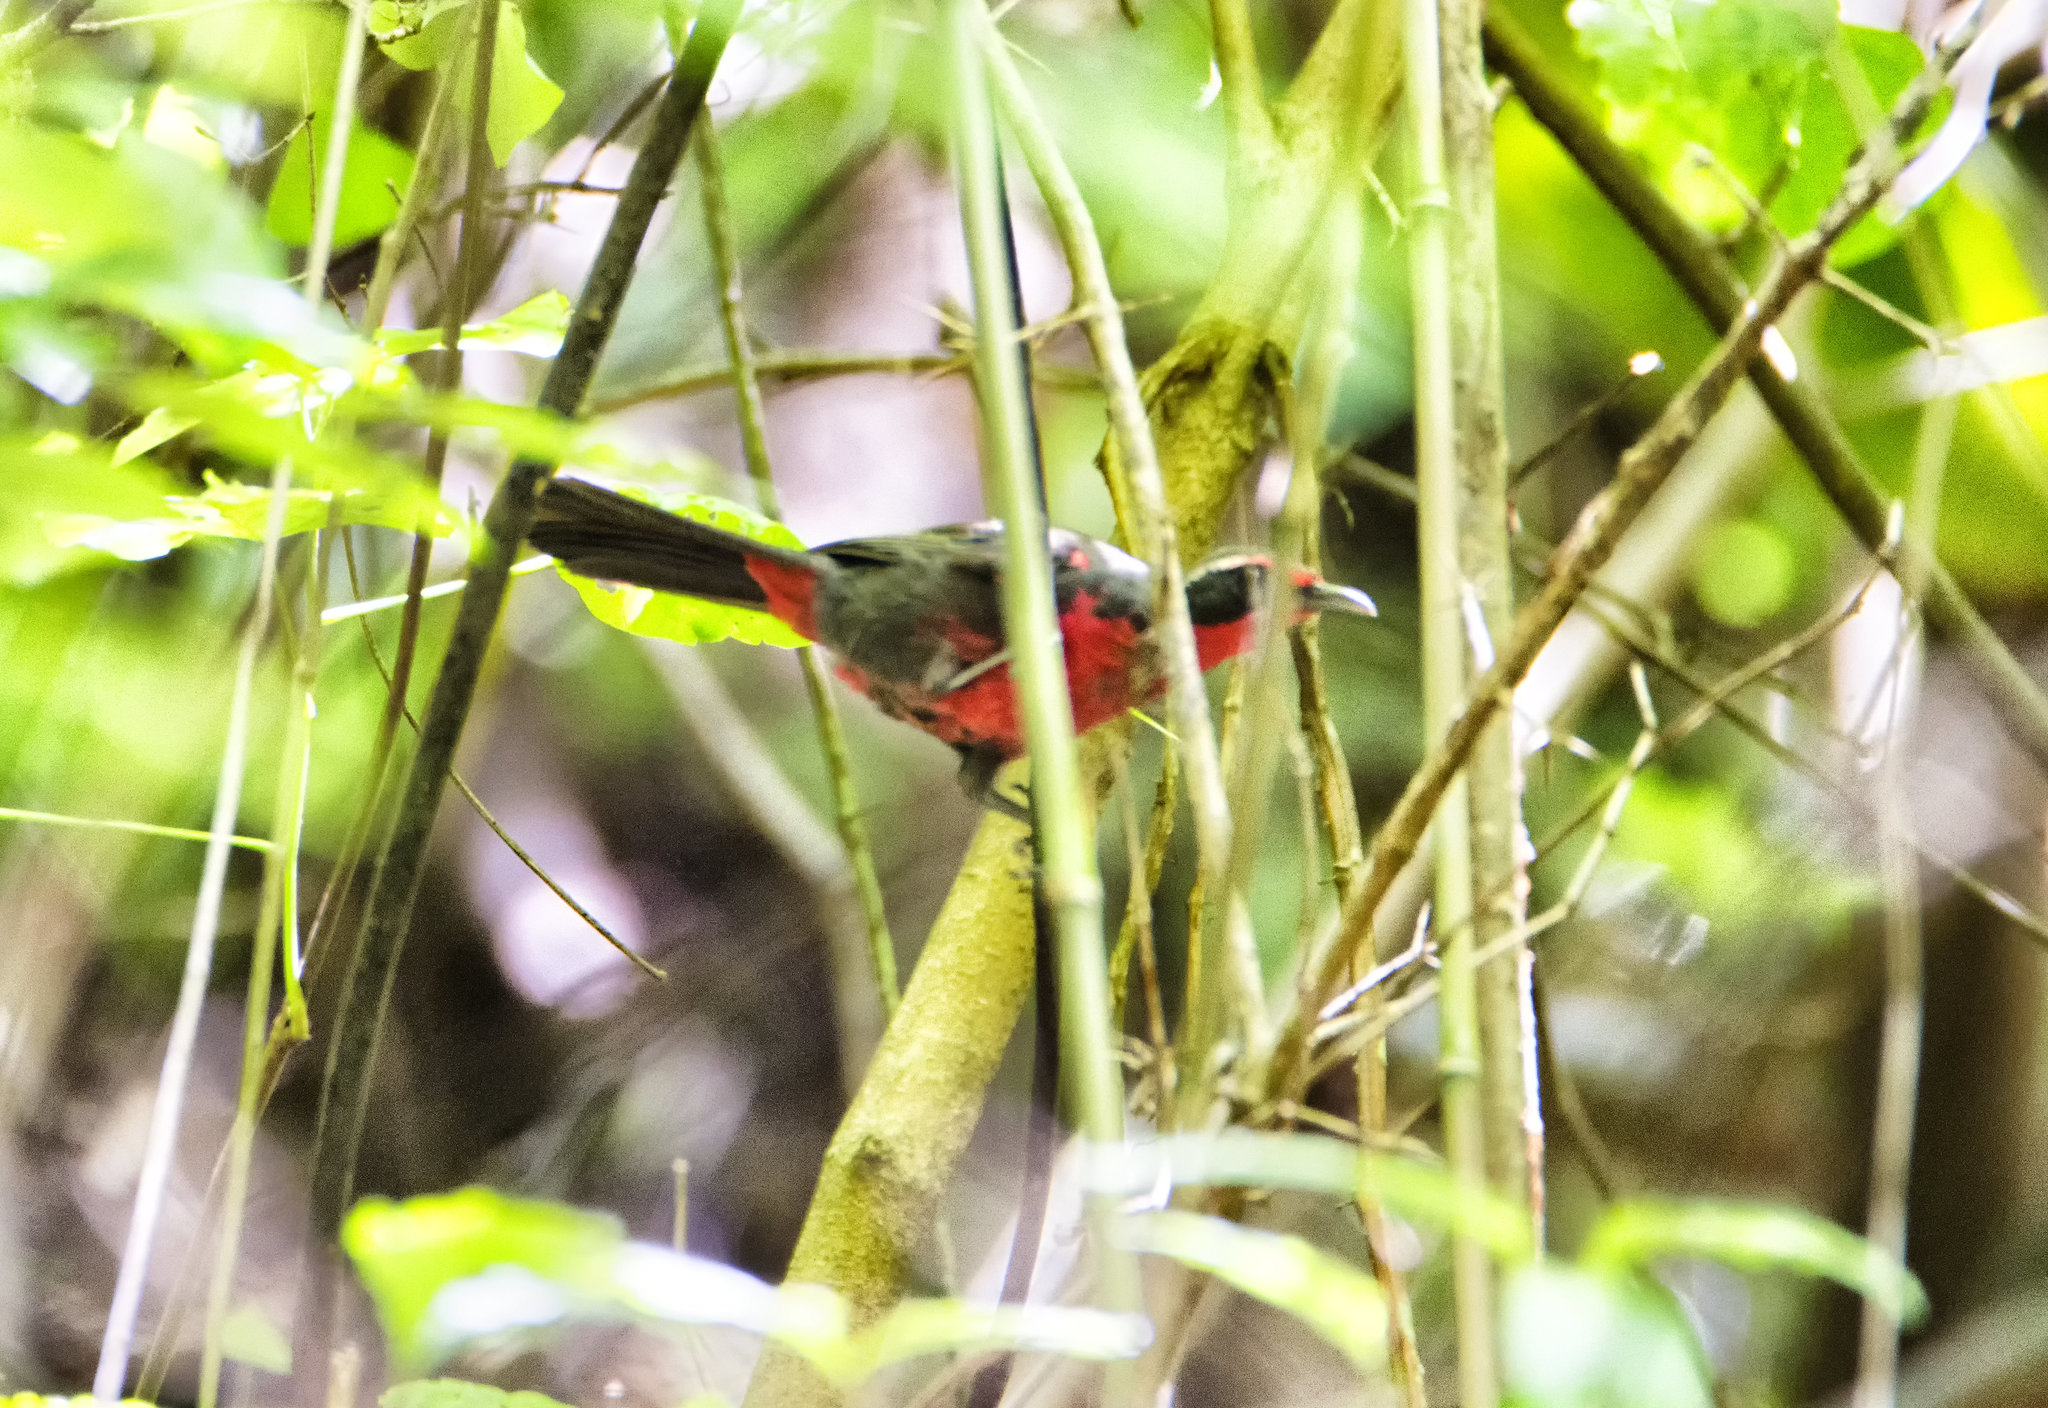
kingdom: Animalia
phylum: Chordata
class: Aves
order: Passeriformes
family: Rhodinocichlidae
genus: Rhodinocichla
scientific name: Rhodinocichla rosea
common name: Rosy thrush-tanager
